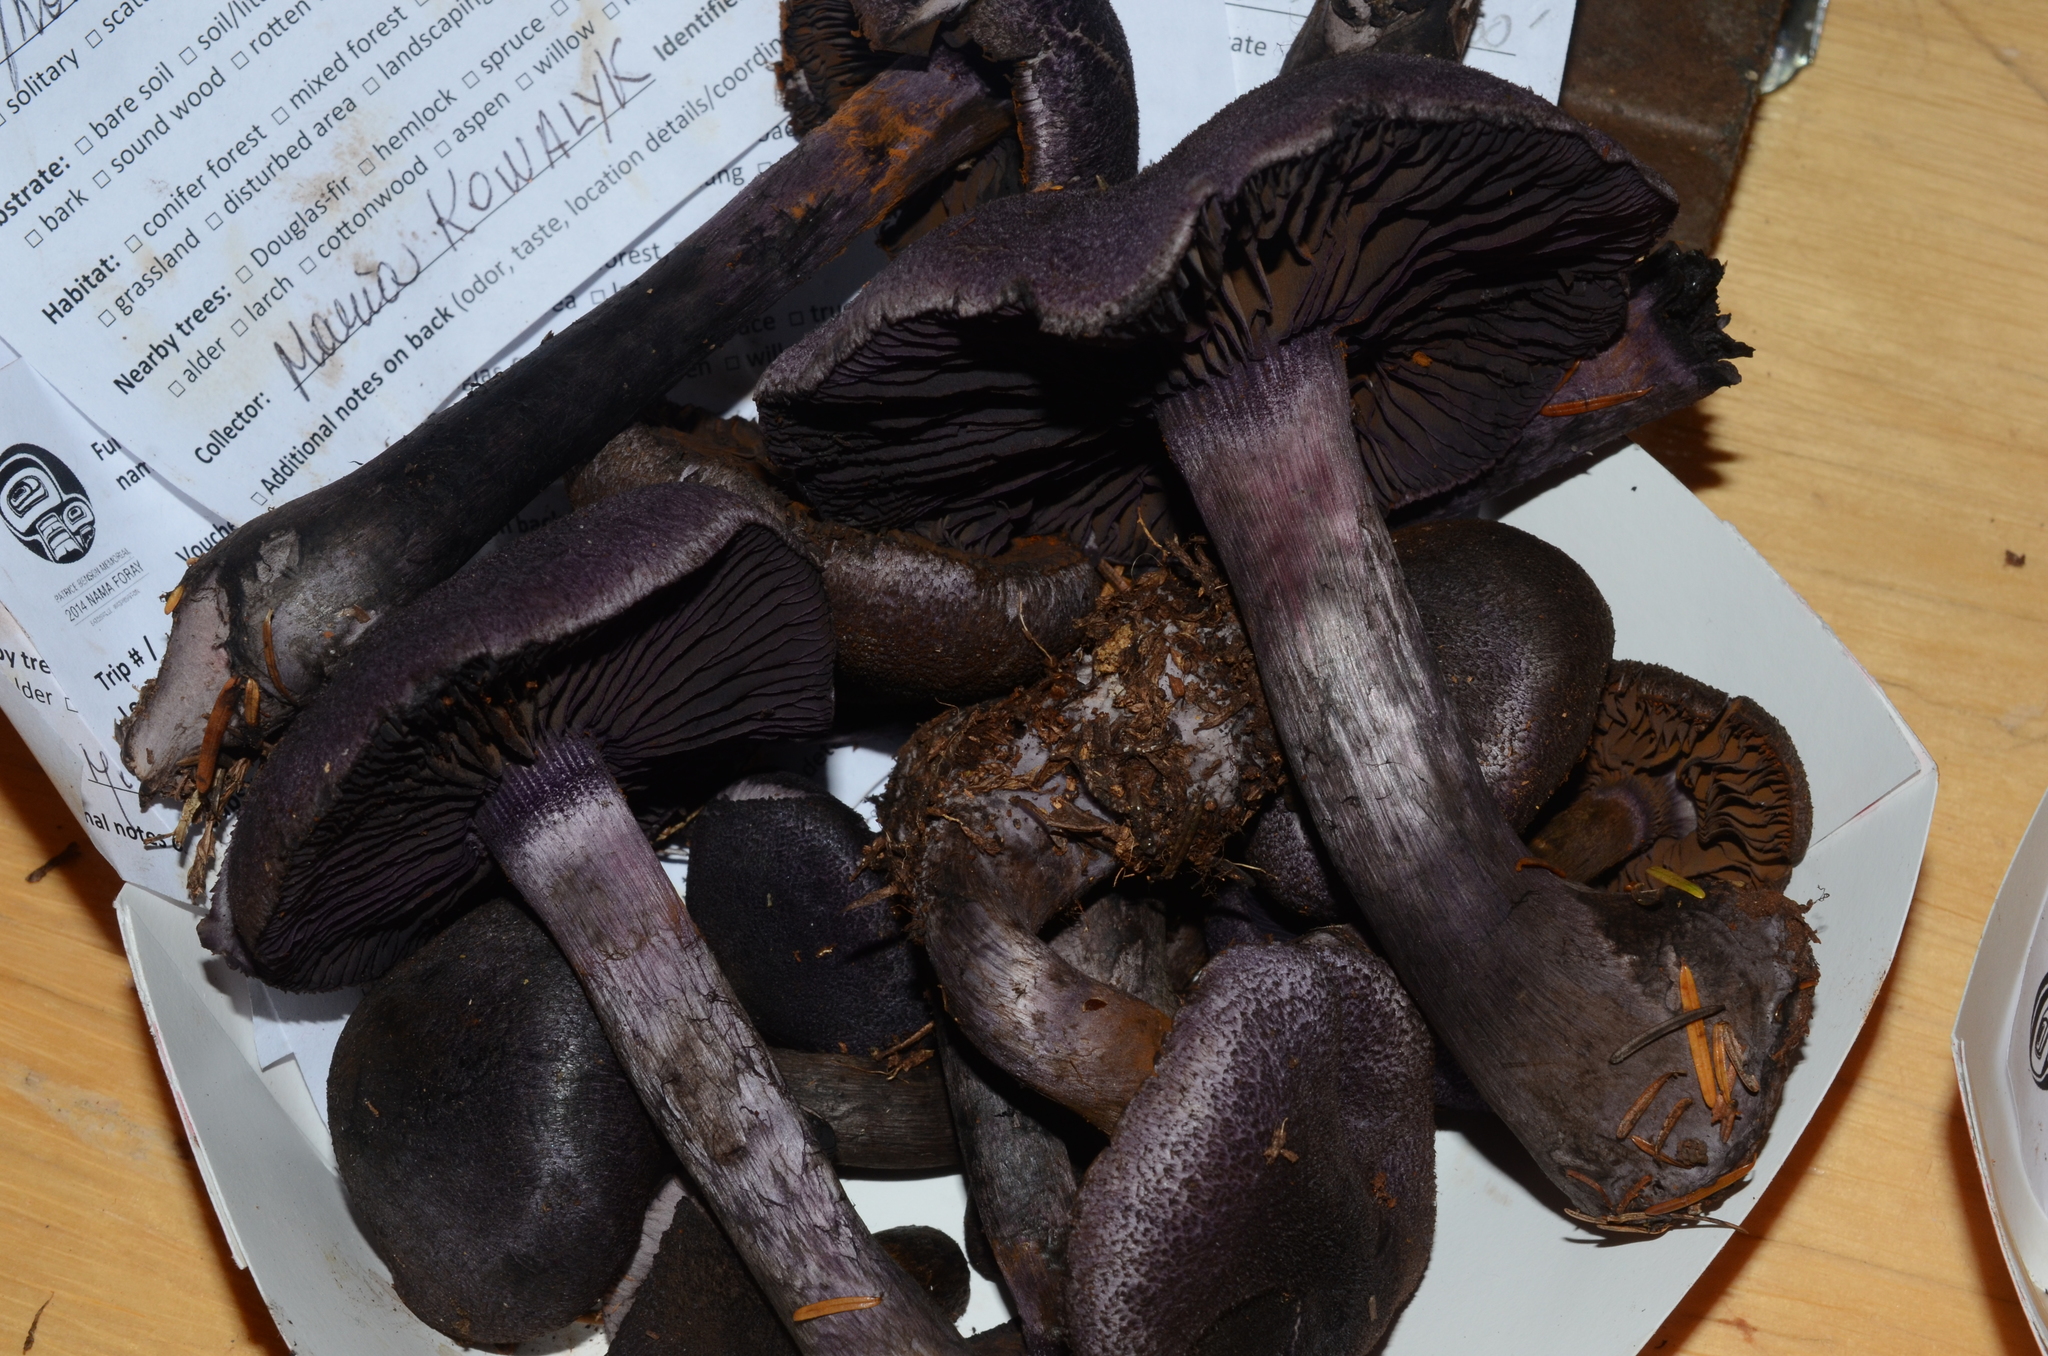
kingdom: Fungi
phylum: Basidiomycota
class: Agaricomycetes
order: Agaricales
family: Cortinariaceae
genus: Cortinarius
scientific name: Cortinarius violaceus
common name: Violet webcap
